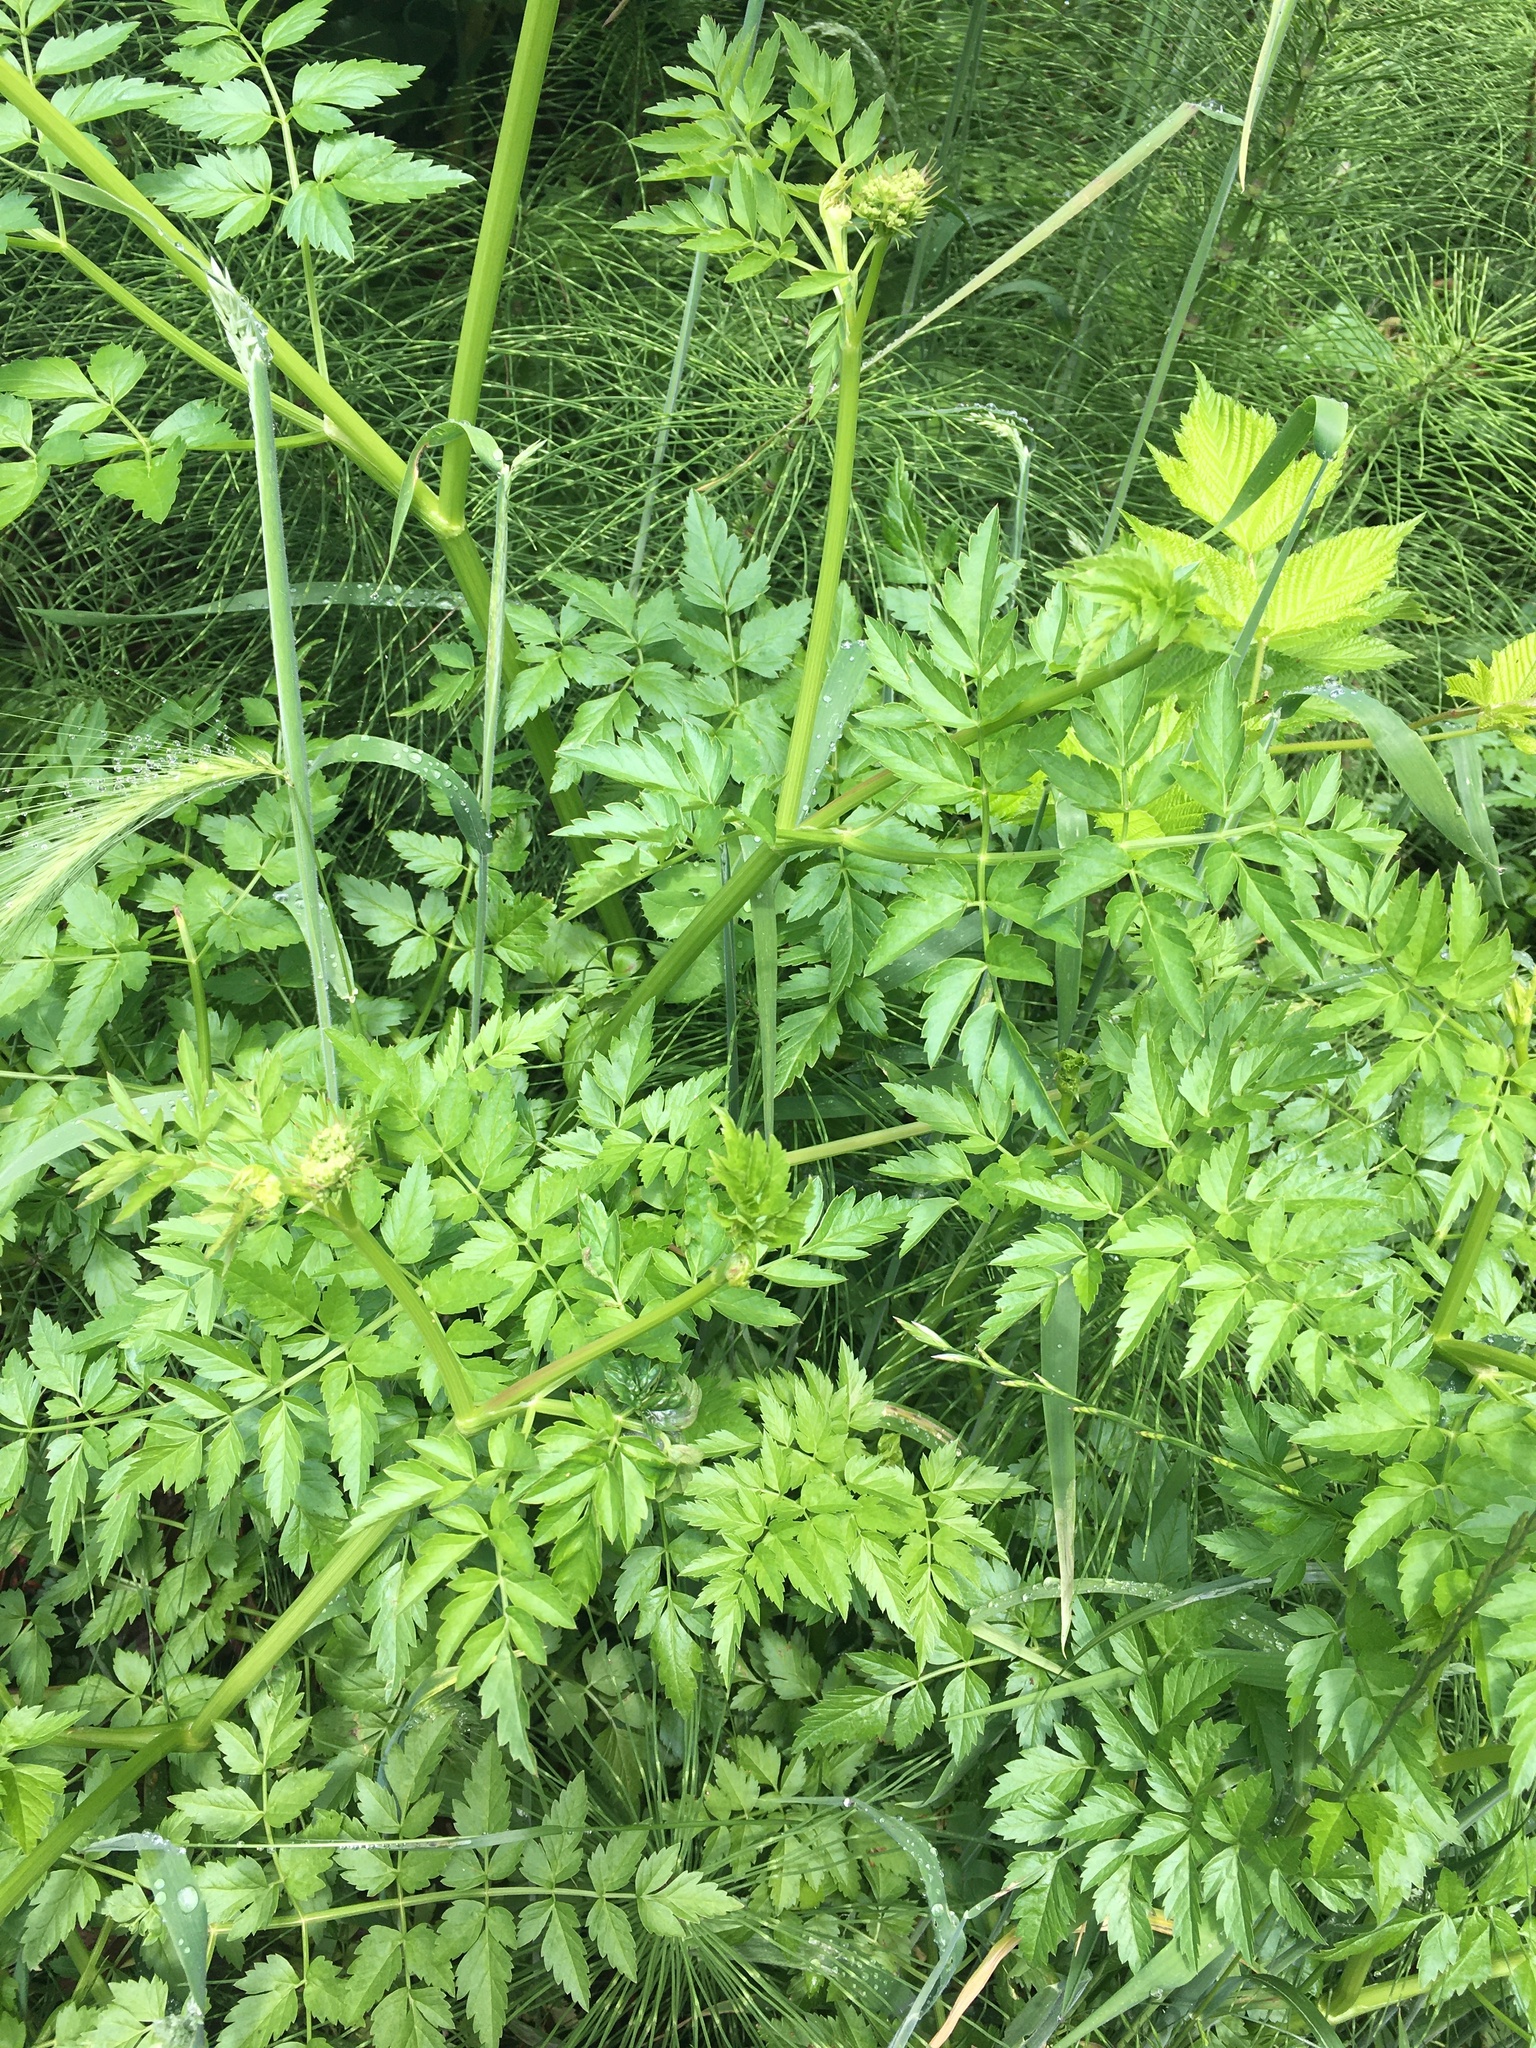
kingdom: Plantae
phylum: Tracheophyta
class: Magnoliopsida
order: Apiales
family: Apiaceae
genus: Oenanthe
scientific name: Oenanthe sarmentosa
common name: American water-parsley
